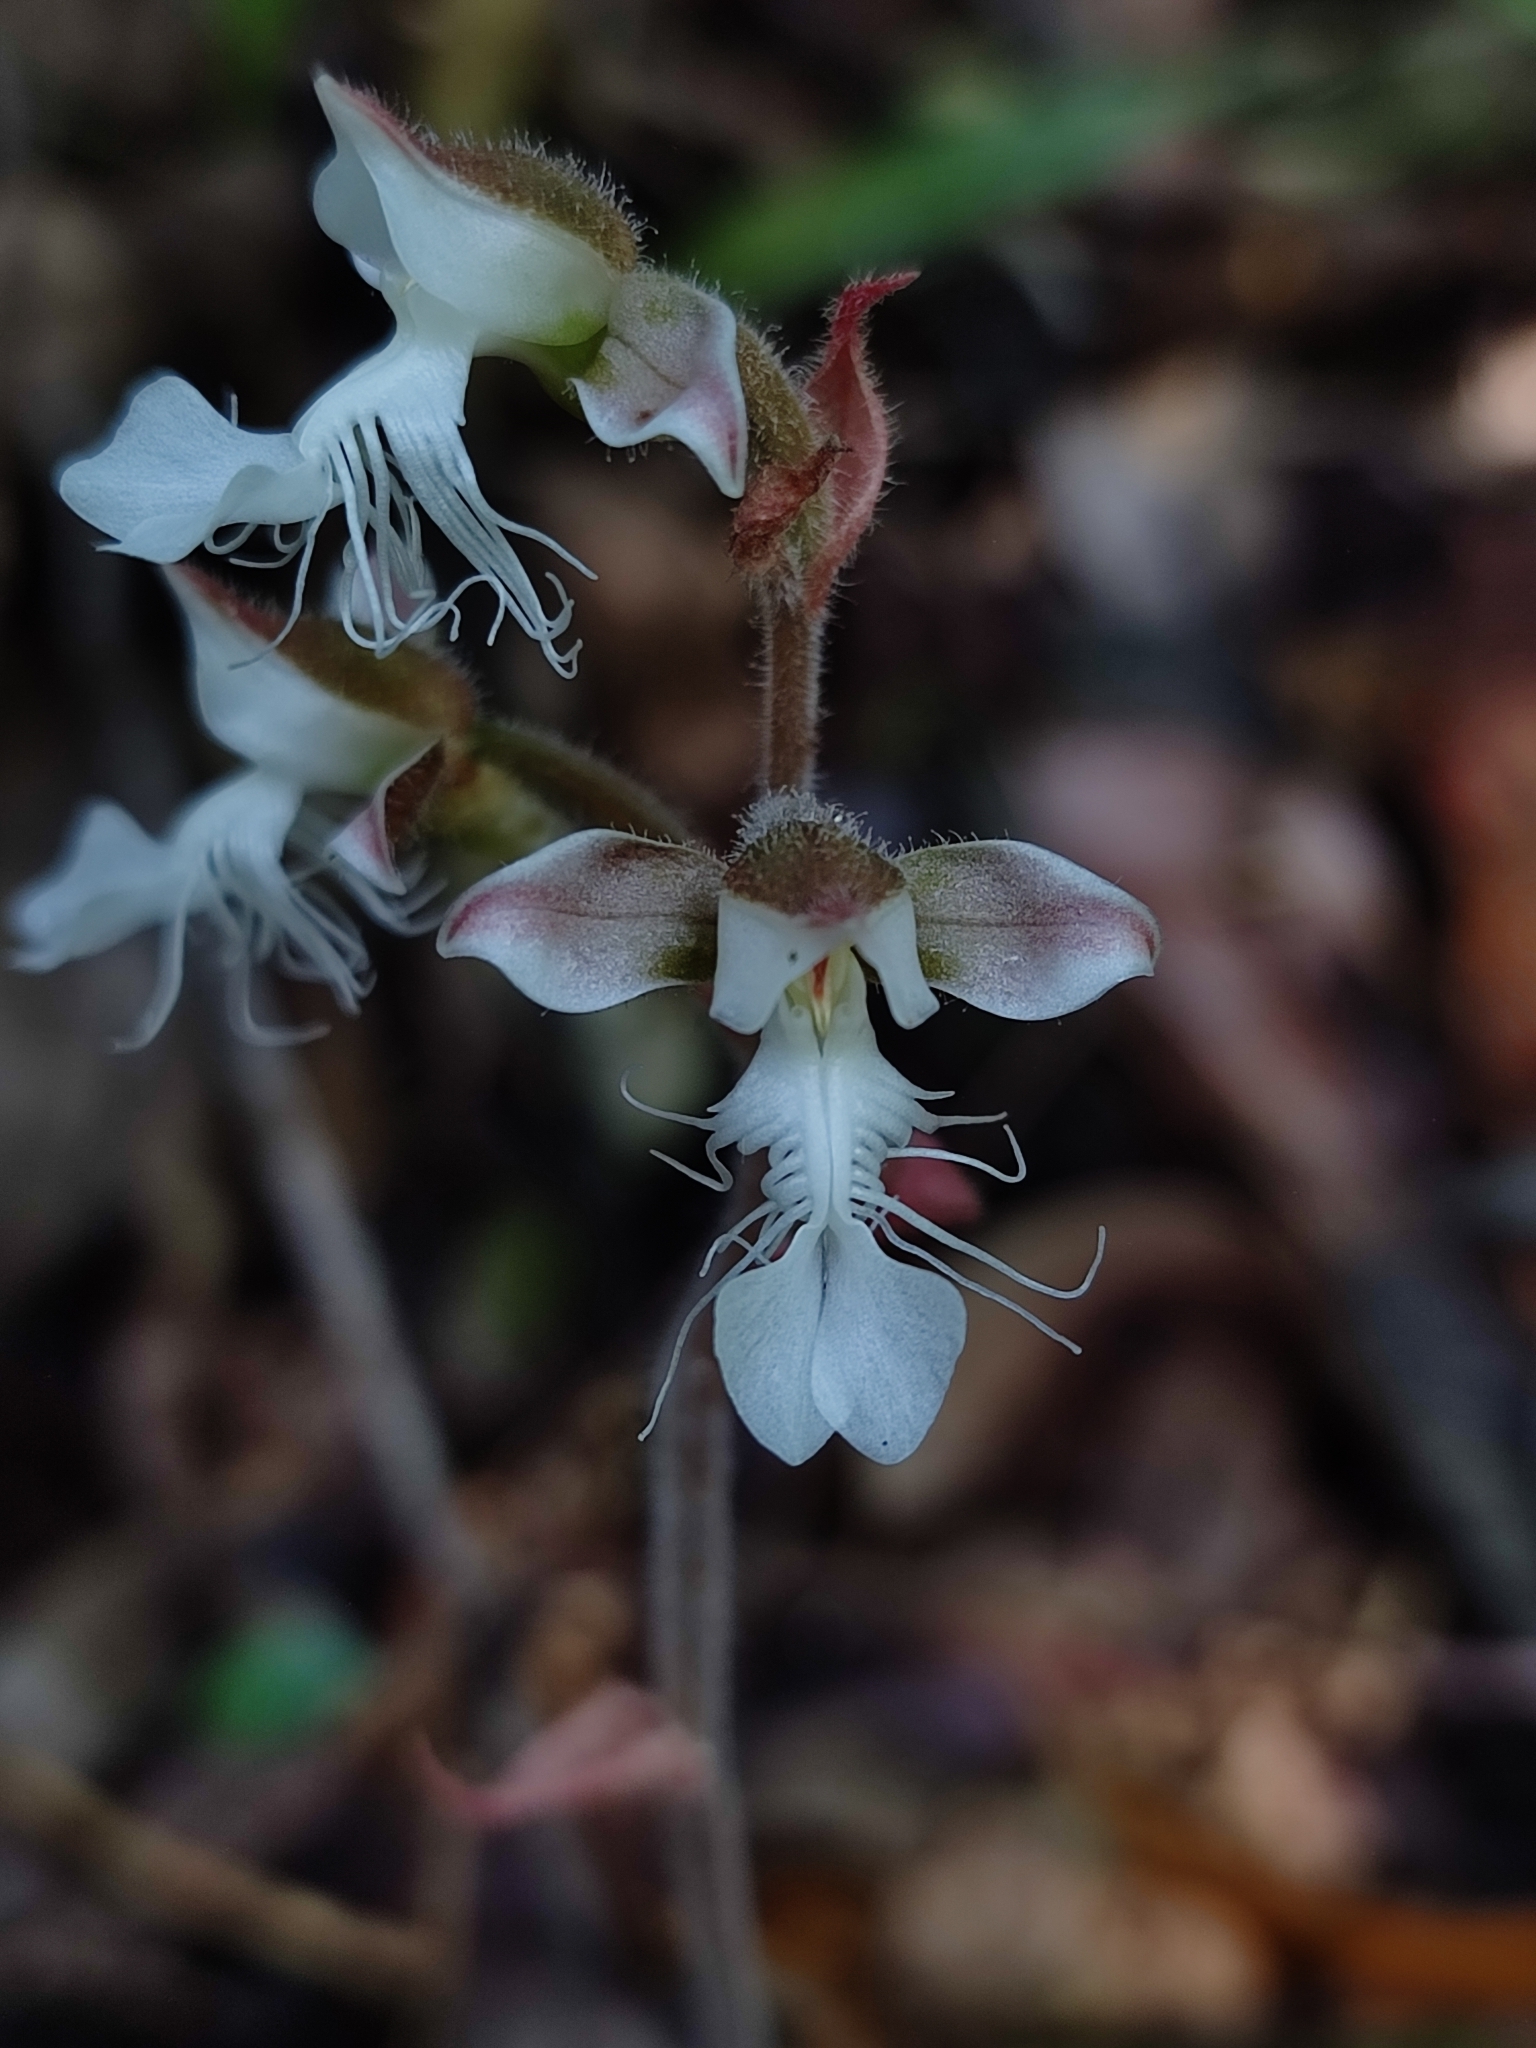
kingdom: Plantae
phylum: Tracheophyta
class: Liliopsida
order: Asparagales
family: Orchidaceae
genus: Anoectochilus
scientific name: Anoectochilus elatus
